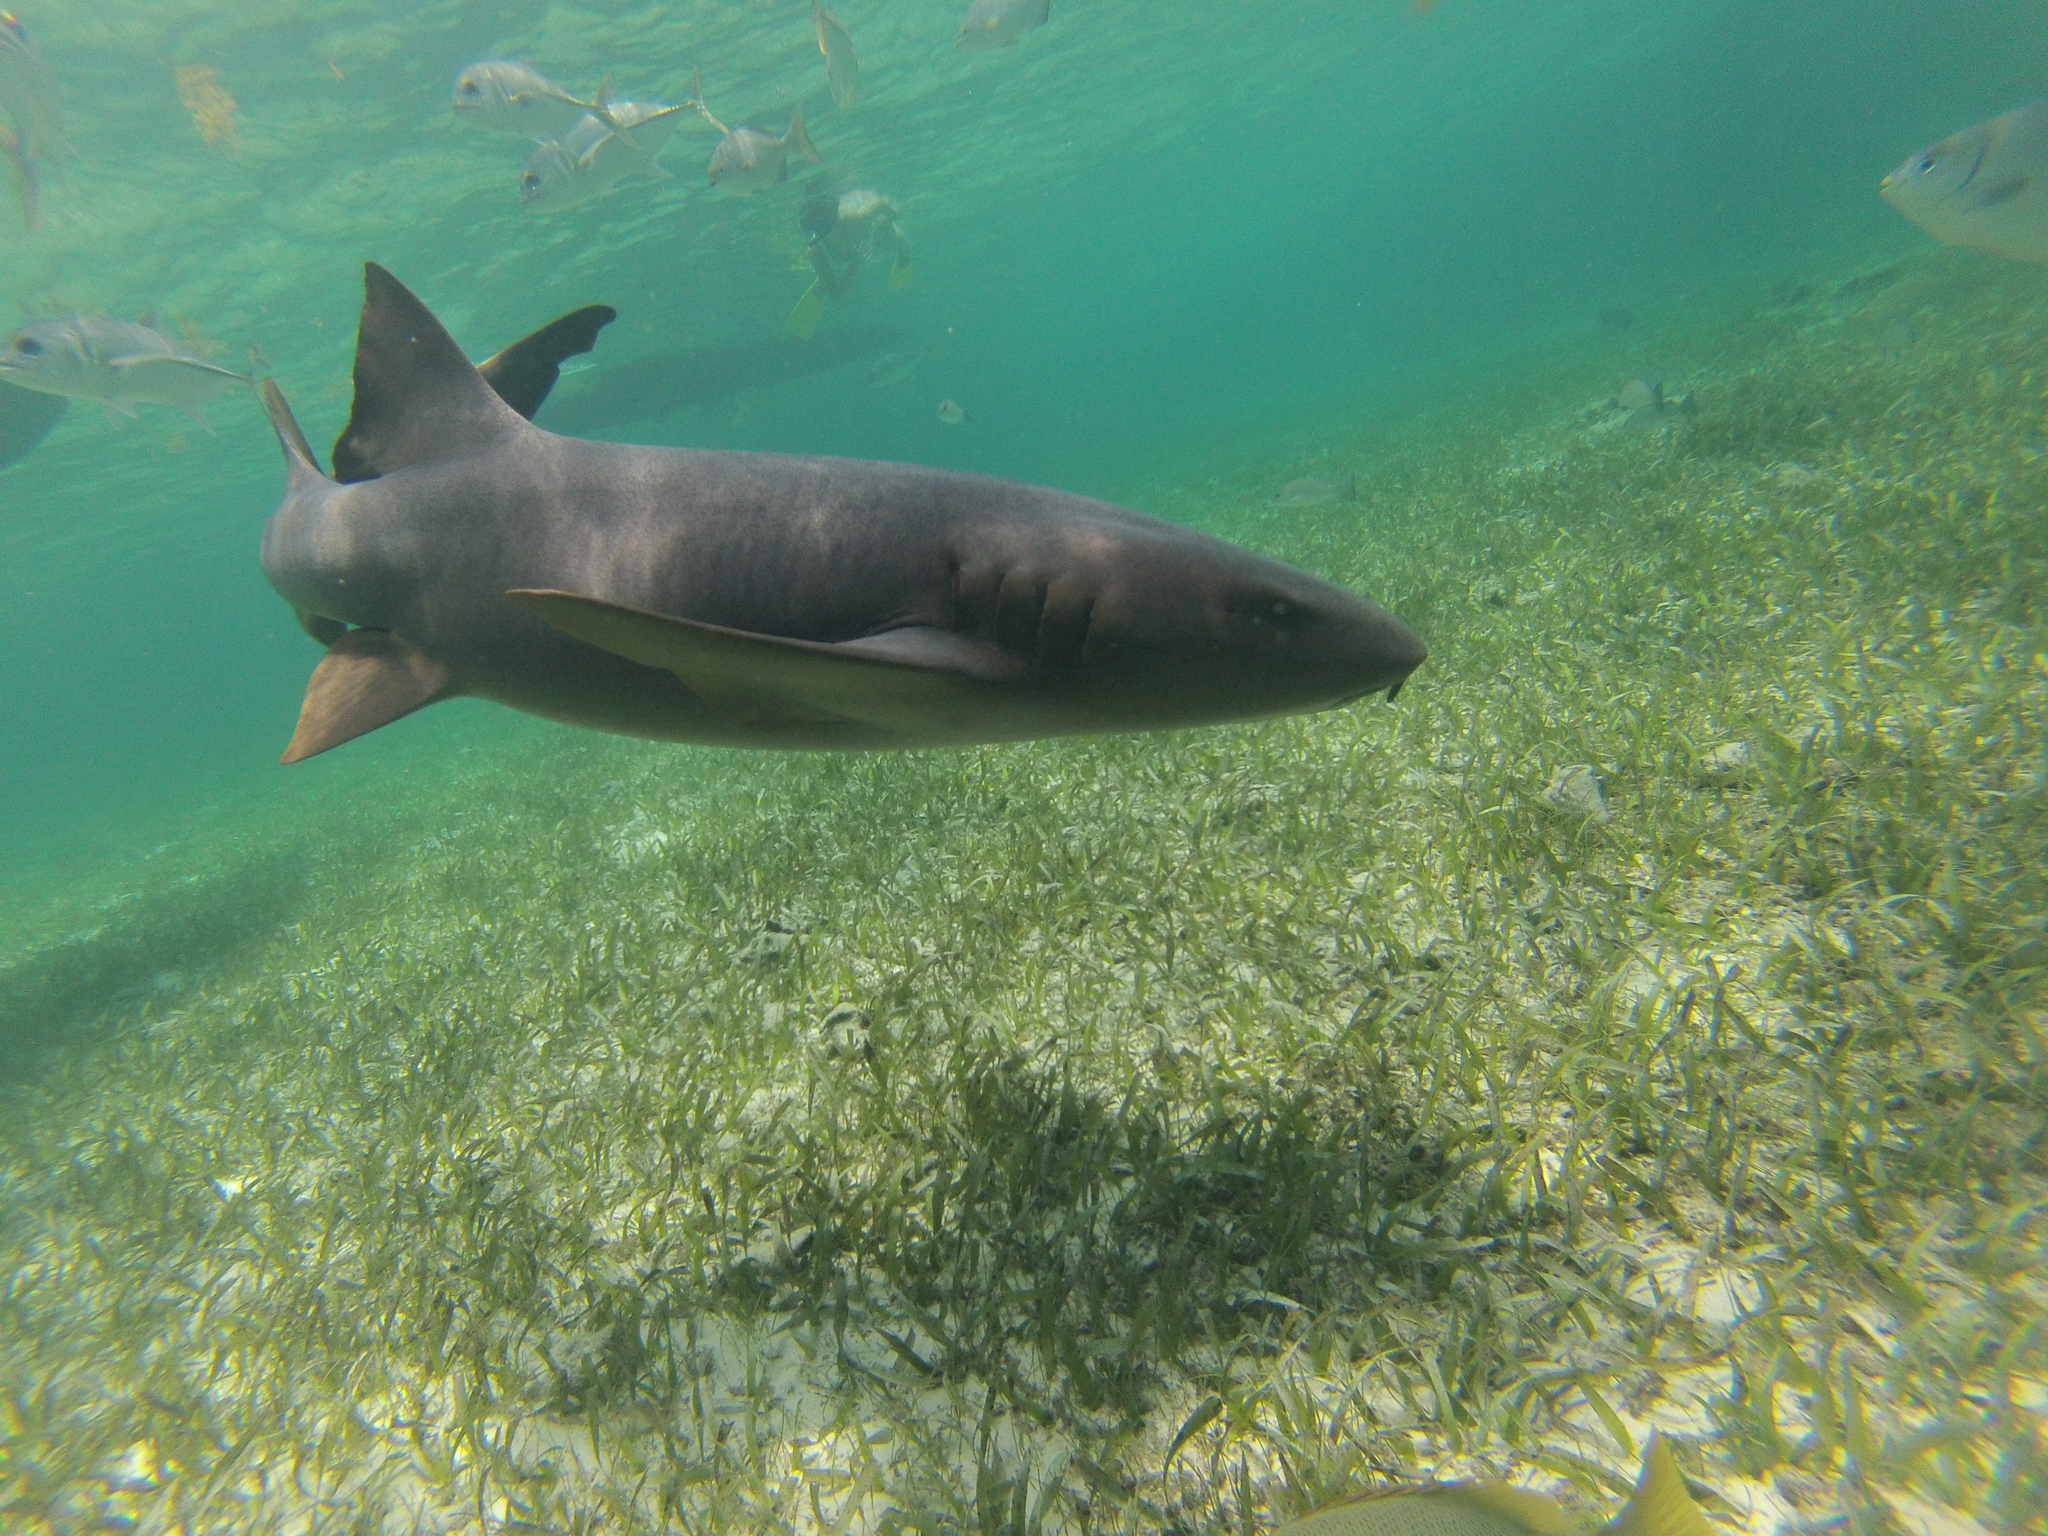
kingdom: Animalia
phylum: Chordata
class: Elasmobranchii
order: Orectolobiformes
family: Ginglymostomatidae
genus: Ginglymostoma
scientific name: Ginglymostoma cirratum
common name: Nurse shark
